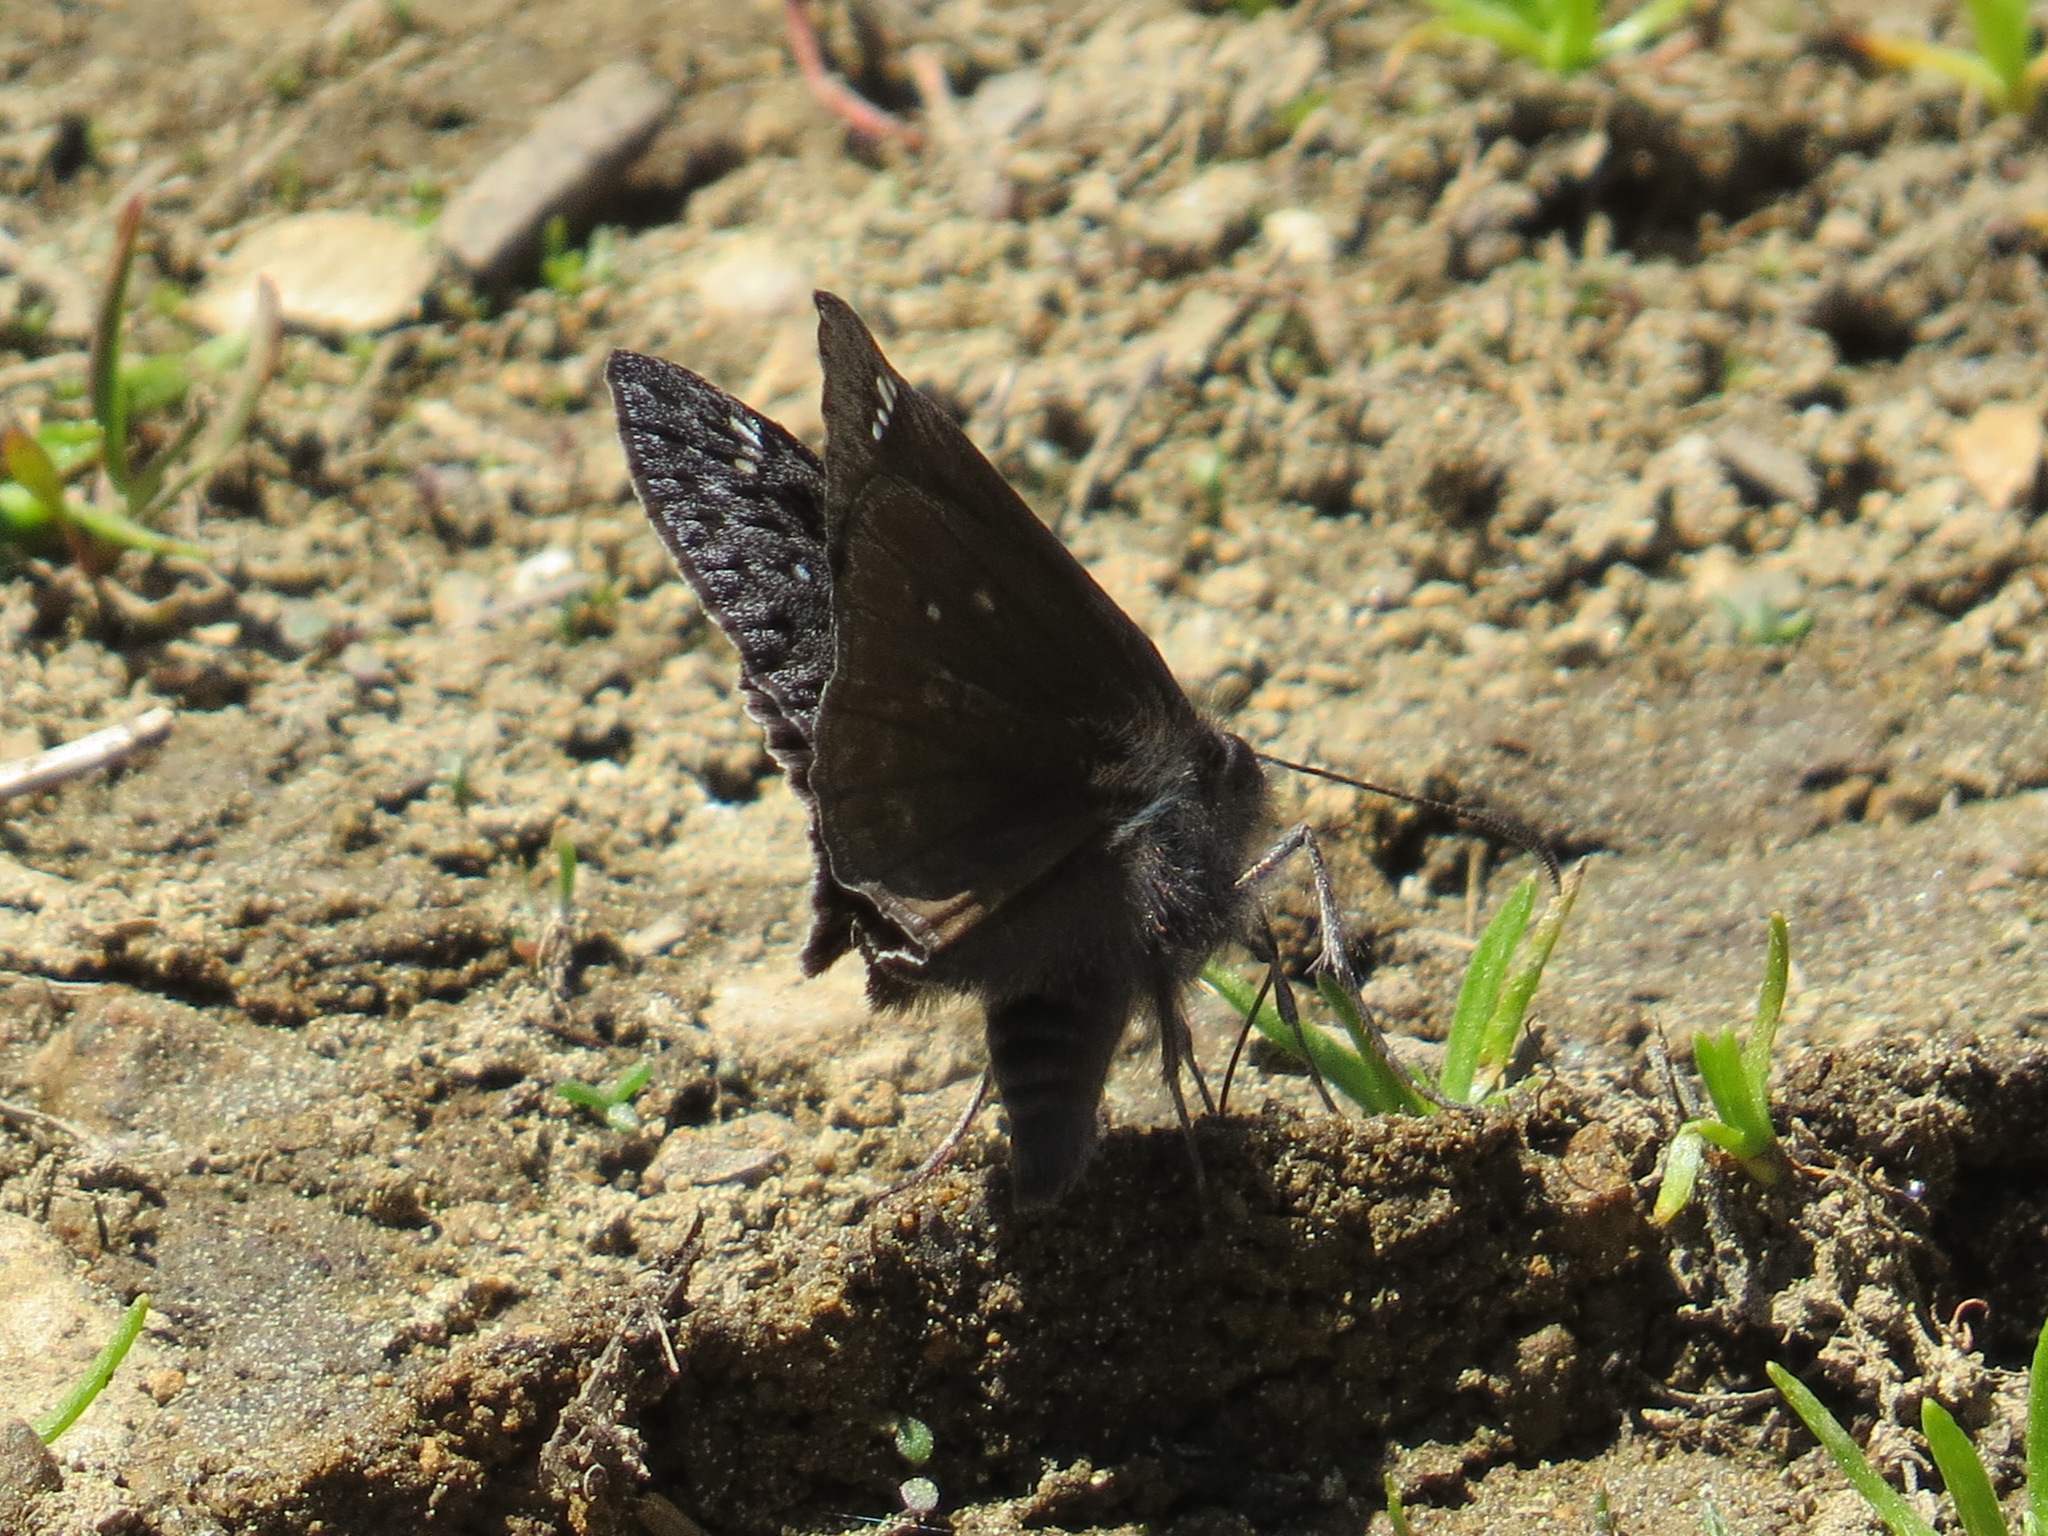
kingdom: Animalia
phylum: Arthropoda
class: Insecta
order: Lepidoptera
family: Hesperiidae
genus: Erynnis
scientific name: Erynnis propertius
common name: Propertius duskywing
